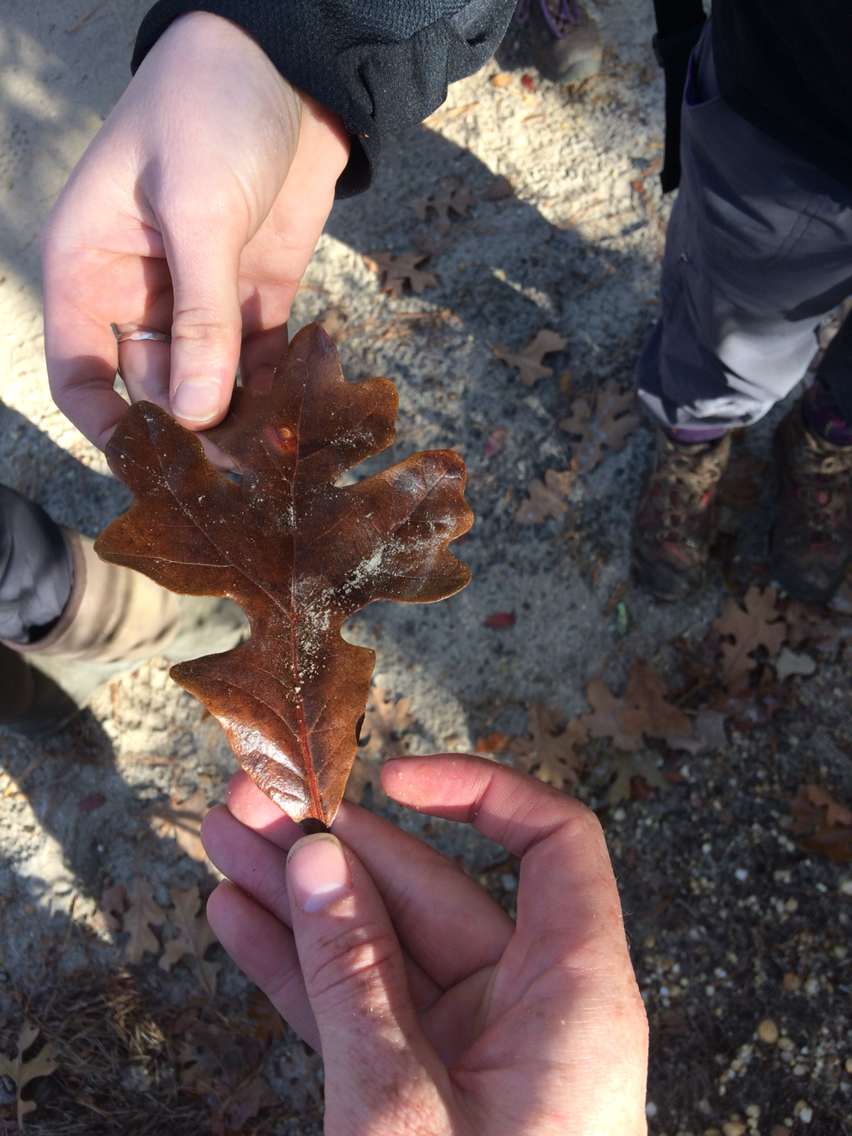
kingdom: Plantae
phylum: Tracheophyta
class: Magnoliopsida
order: Fagales
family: Fagaceae
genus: Quercus
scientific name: Quercus stellata
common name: Post oak
